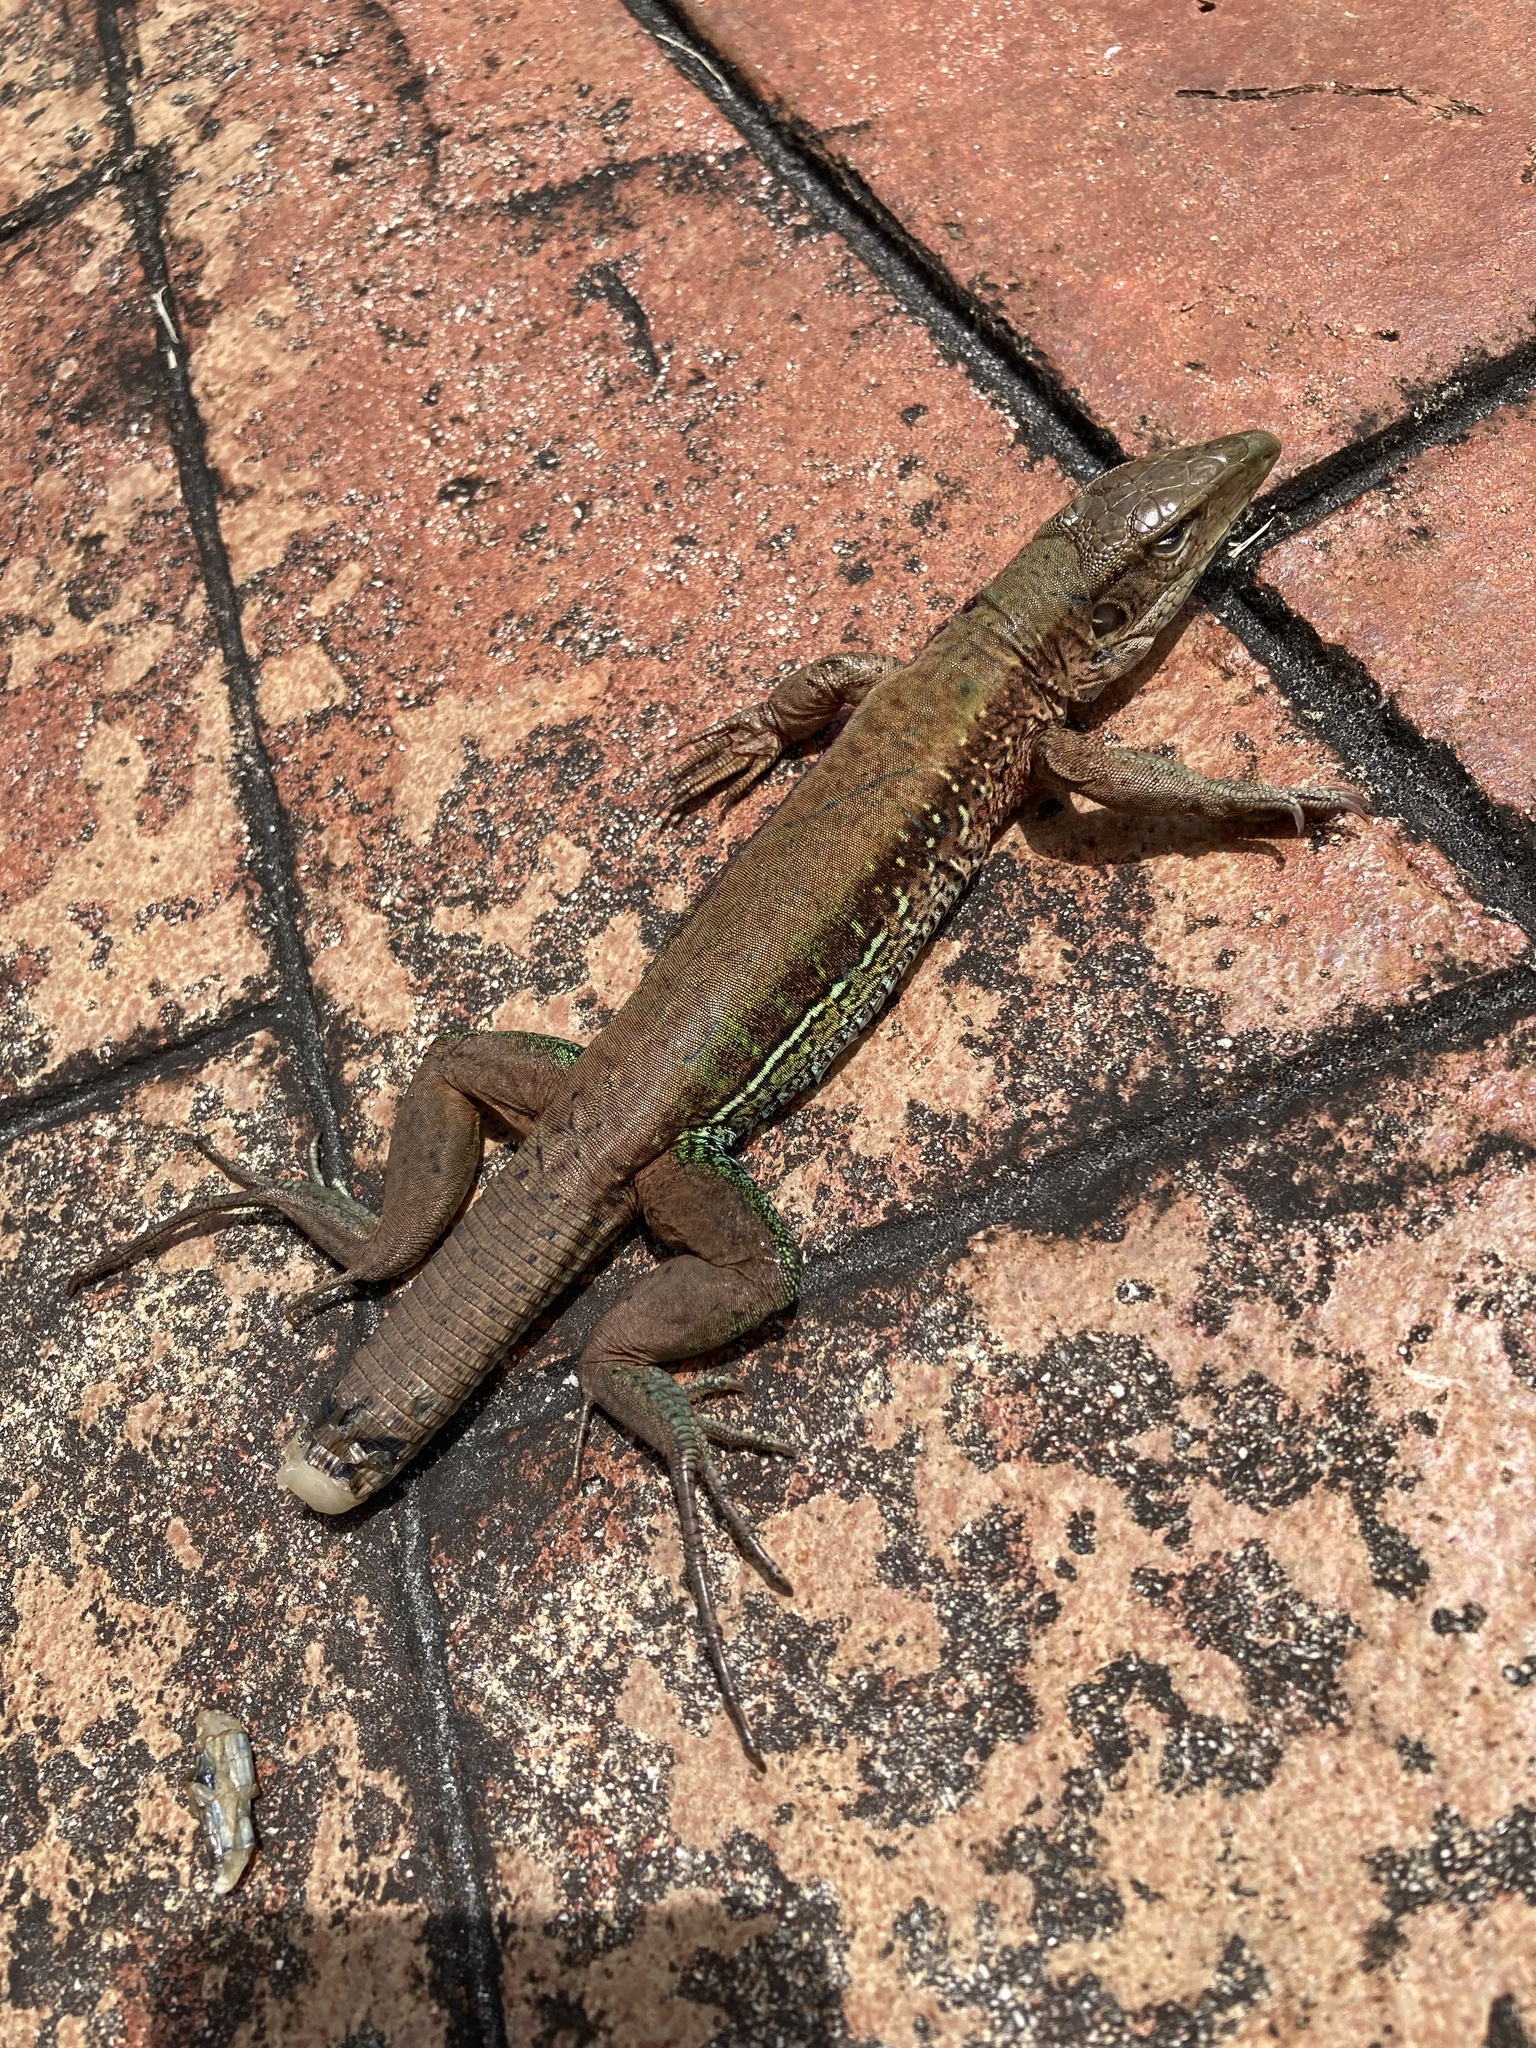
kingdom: Animalia
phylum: Chordata
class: Squamata
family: Teiidae
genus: Ameiva
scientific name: Ameiva ameiva
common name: Giant ameiva
